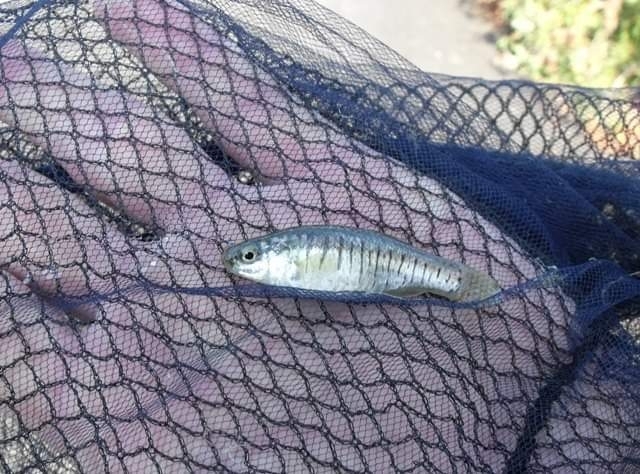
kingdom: Animalia
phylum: Chordata
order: Cyprinodontiformes
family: Cyprinodontidae
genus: Aphanius
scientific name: Aphanius fasciatus
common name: Mediterranean banded killifish
